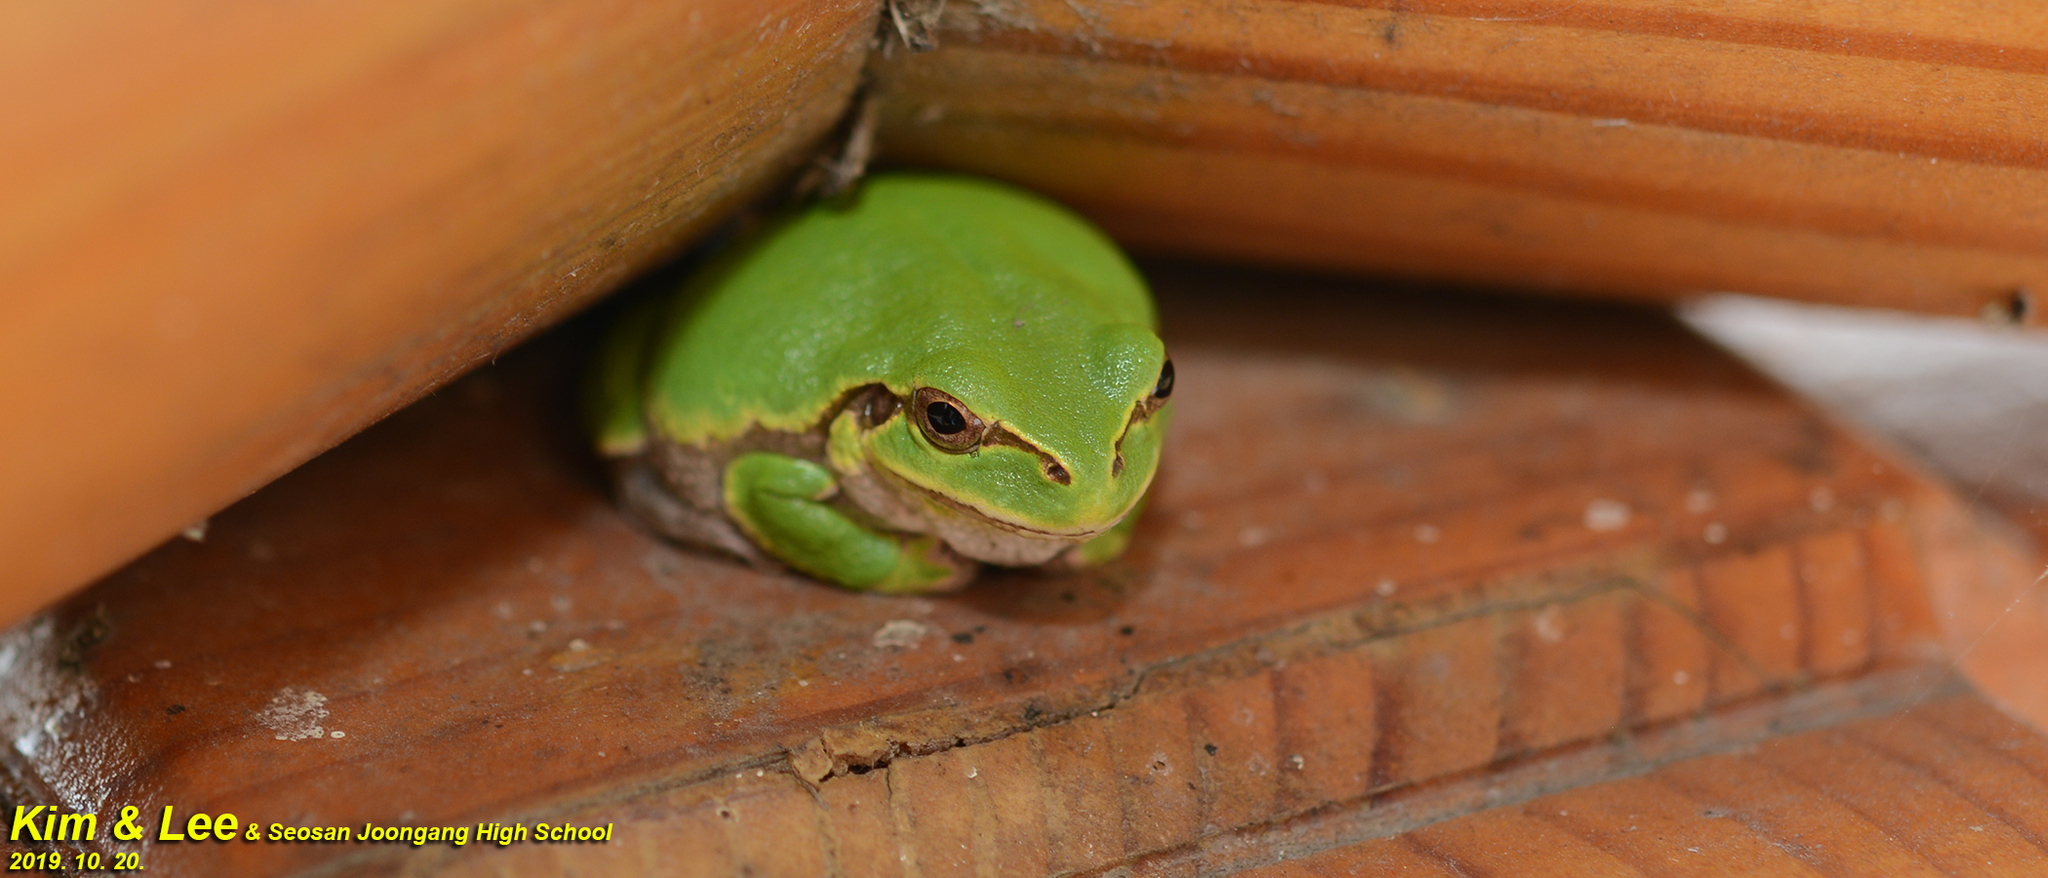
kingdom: Animalia
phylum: Chordata
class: Amphibia
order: Anura
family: Hylidae
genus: Dryophytes
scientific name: Dryophytes japonicus
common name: Japanese treefrog
